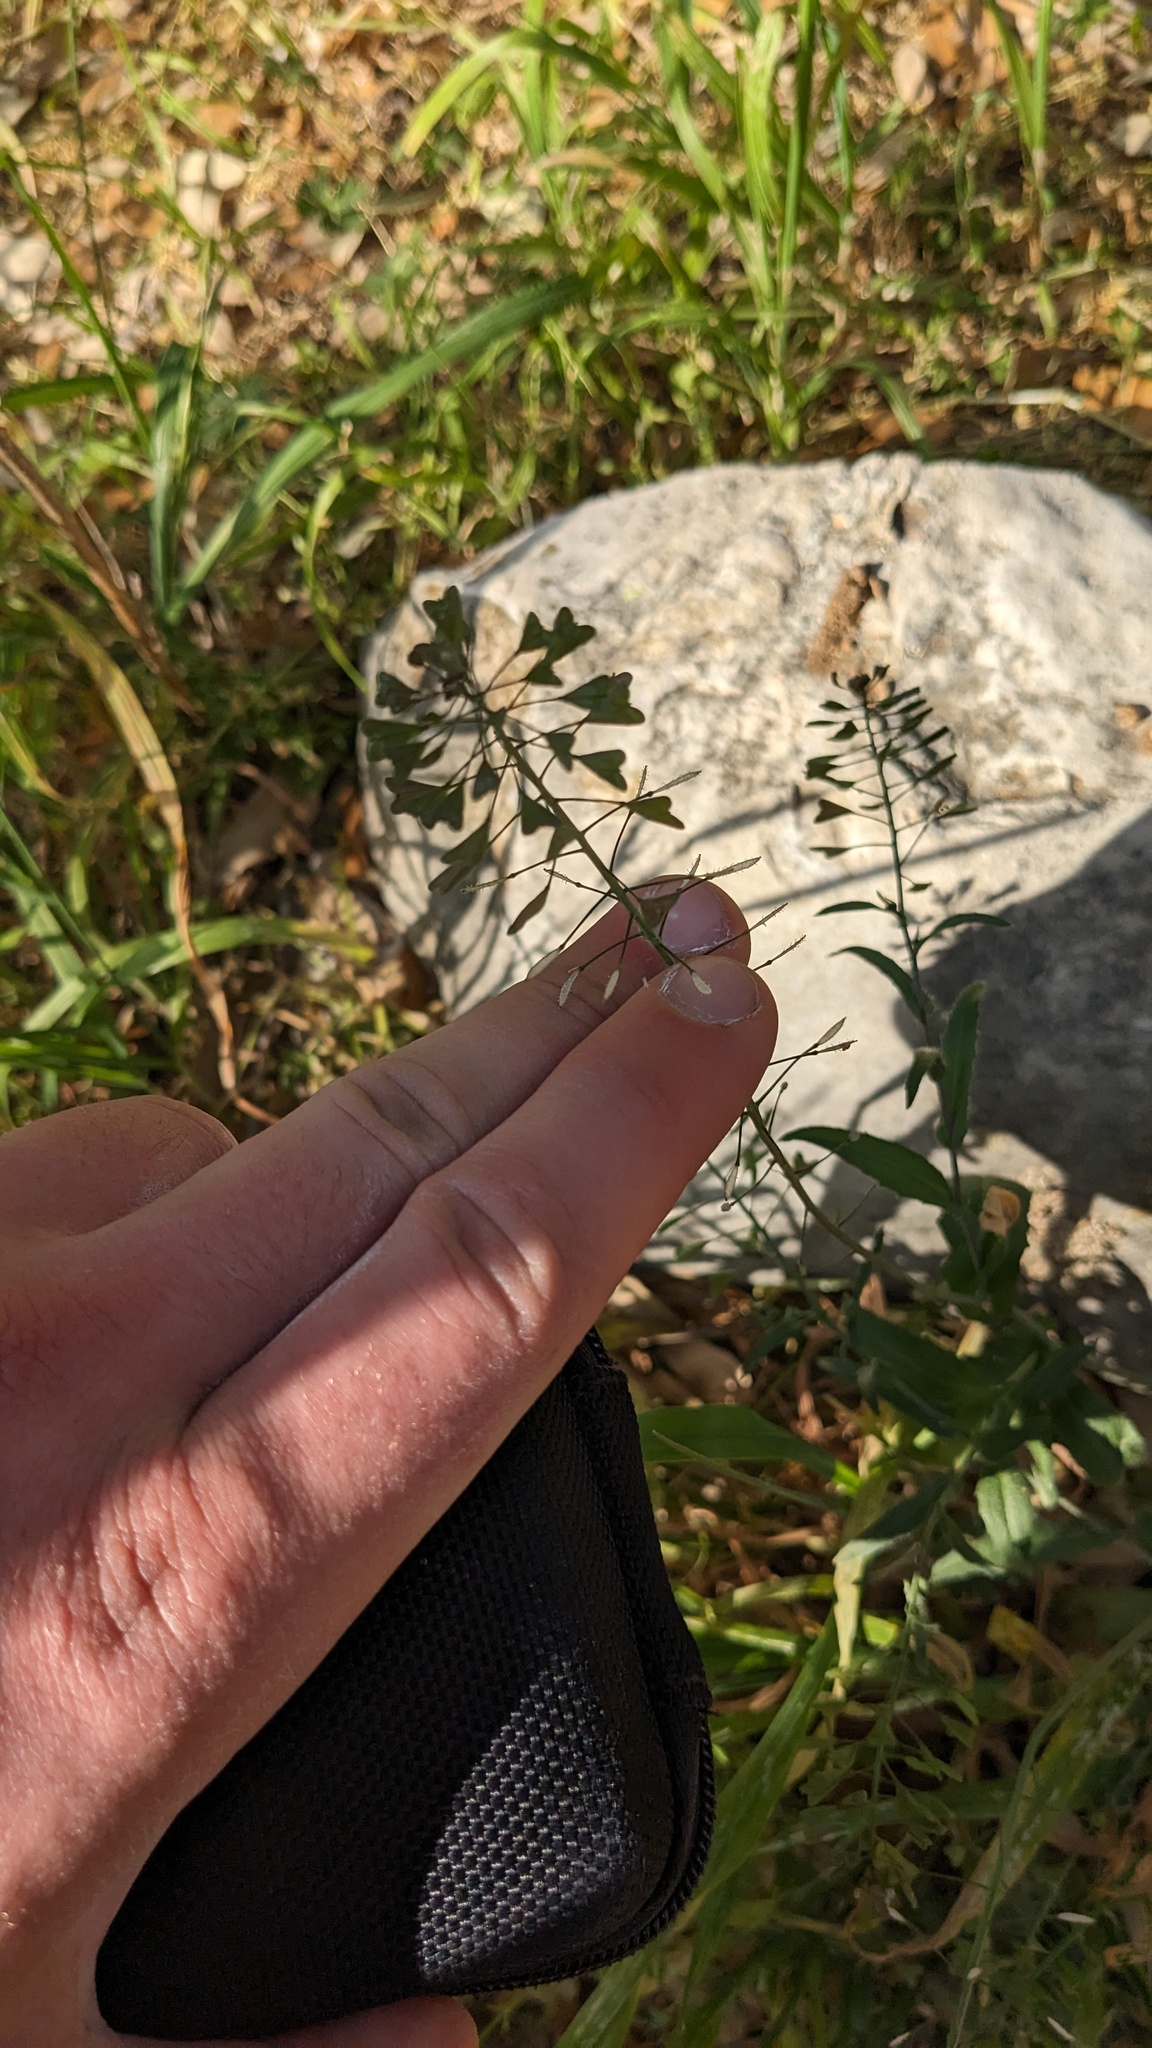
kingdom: Plantae
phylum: Tracheophyta
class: Magnoliopsida
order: Brassicales
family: Brassicaceae
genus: Capsella
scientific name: Capsella bursa-pastoris
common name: Shepherd's purse
